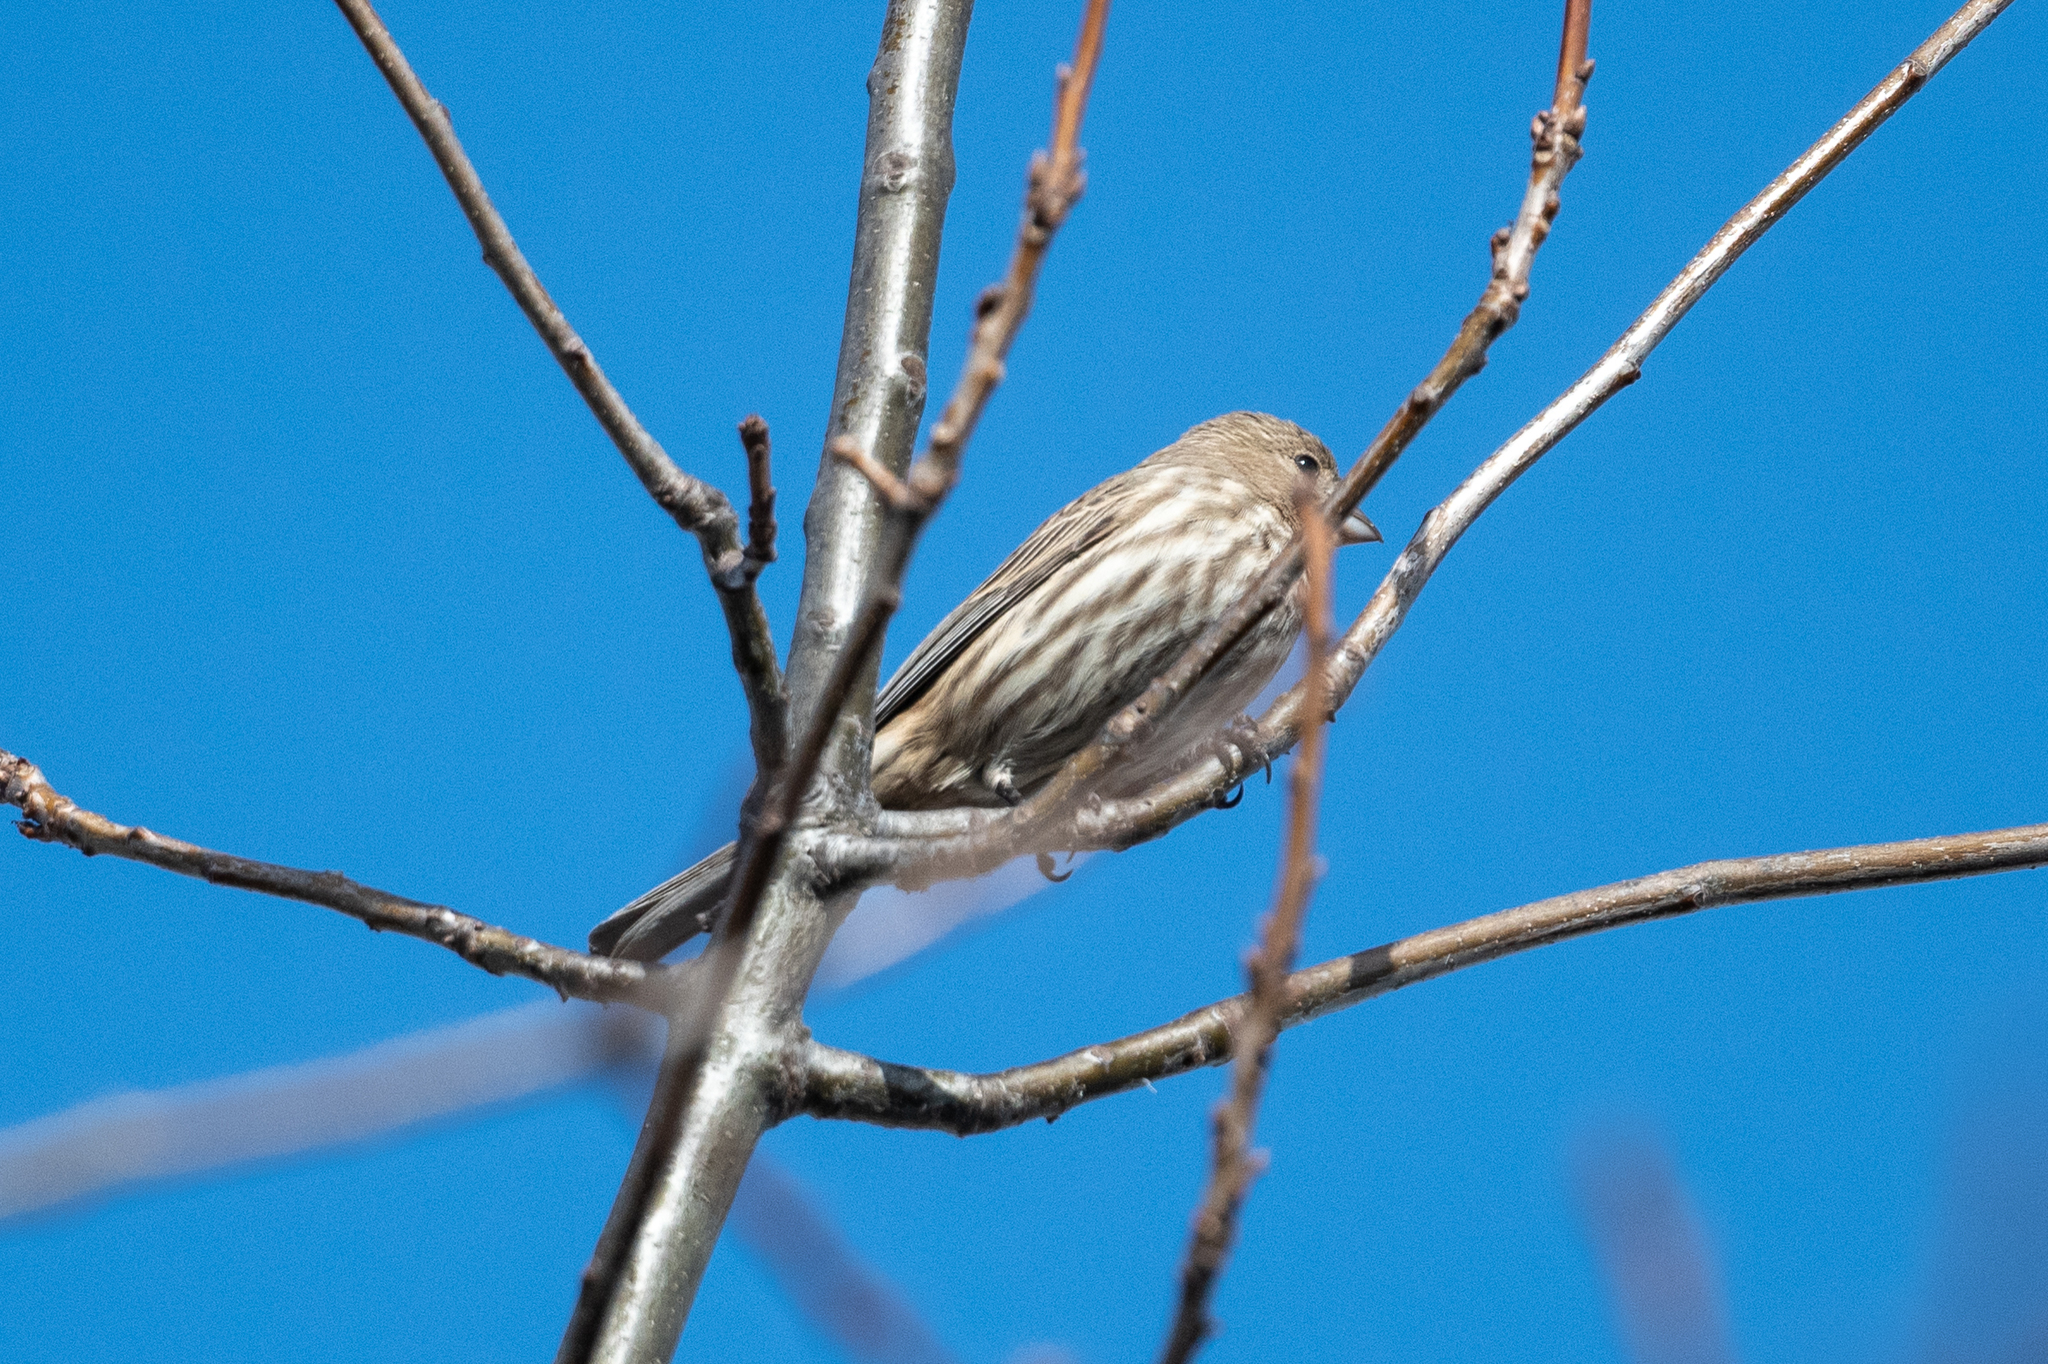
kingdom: Animalia
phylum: Chordata
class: Aves
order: Passeriformes
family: Fringillidae
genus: Haemorhous
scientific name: Haemorhous mexicanus
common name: House finch
